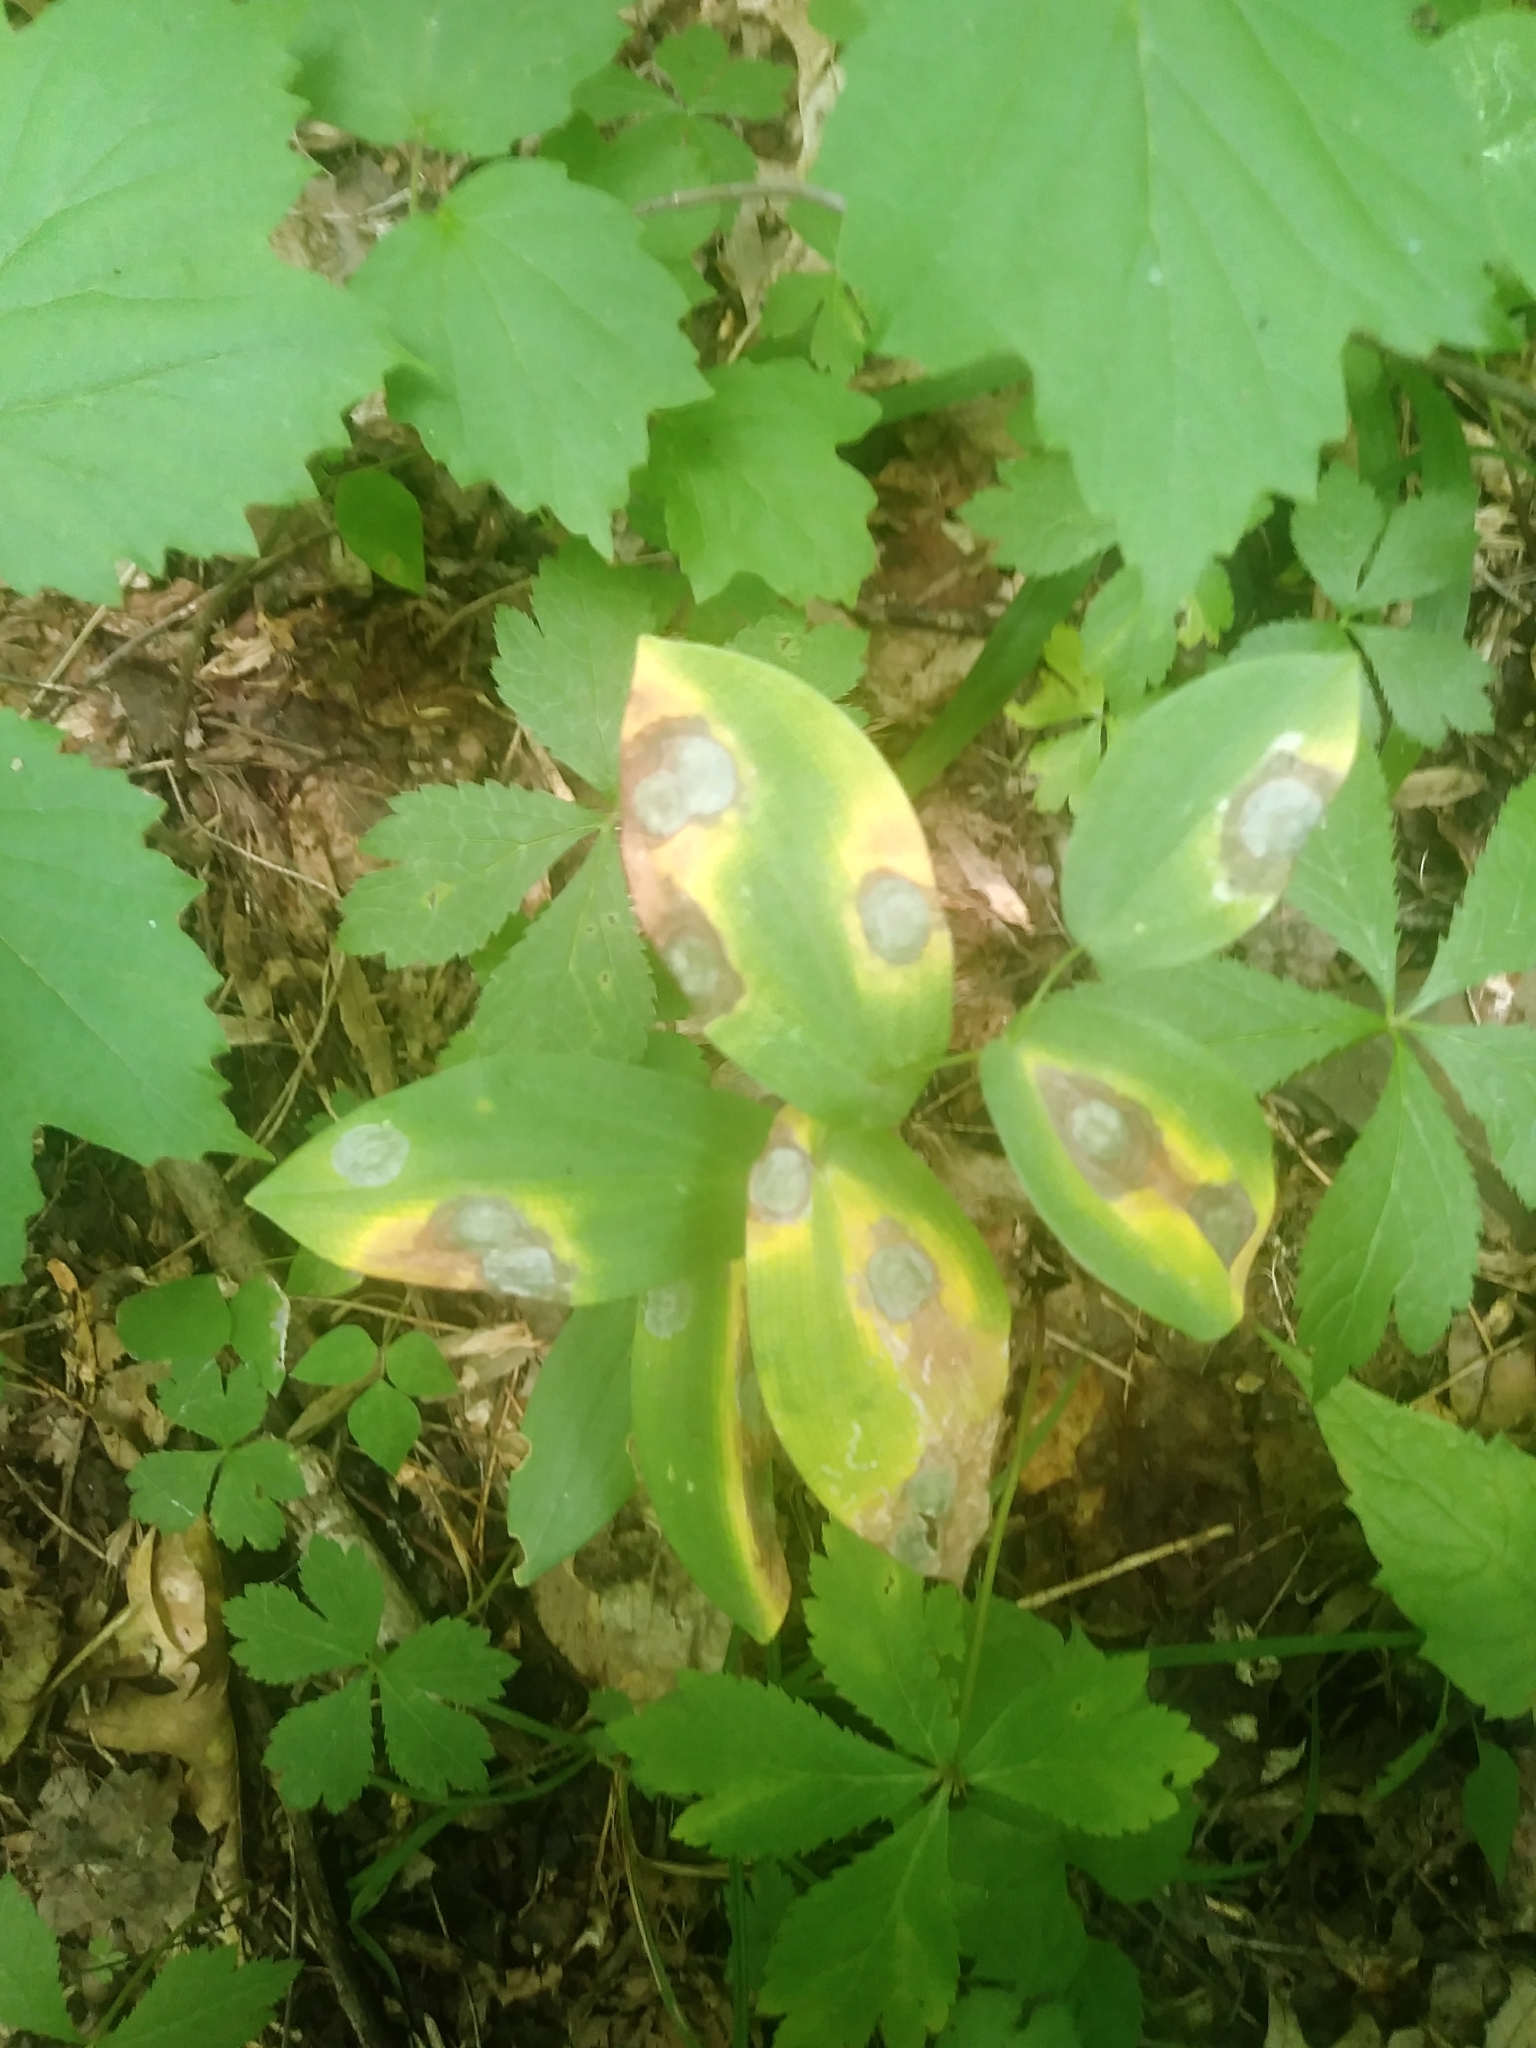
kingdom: Plantae
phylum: Tracheophyta
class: Liliopsida
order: Liliales
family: Colchicaceae
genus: Uvularia
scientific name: Uvularia perfoliata
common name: Perfoliate bellwort
